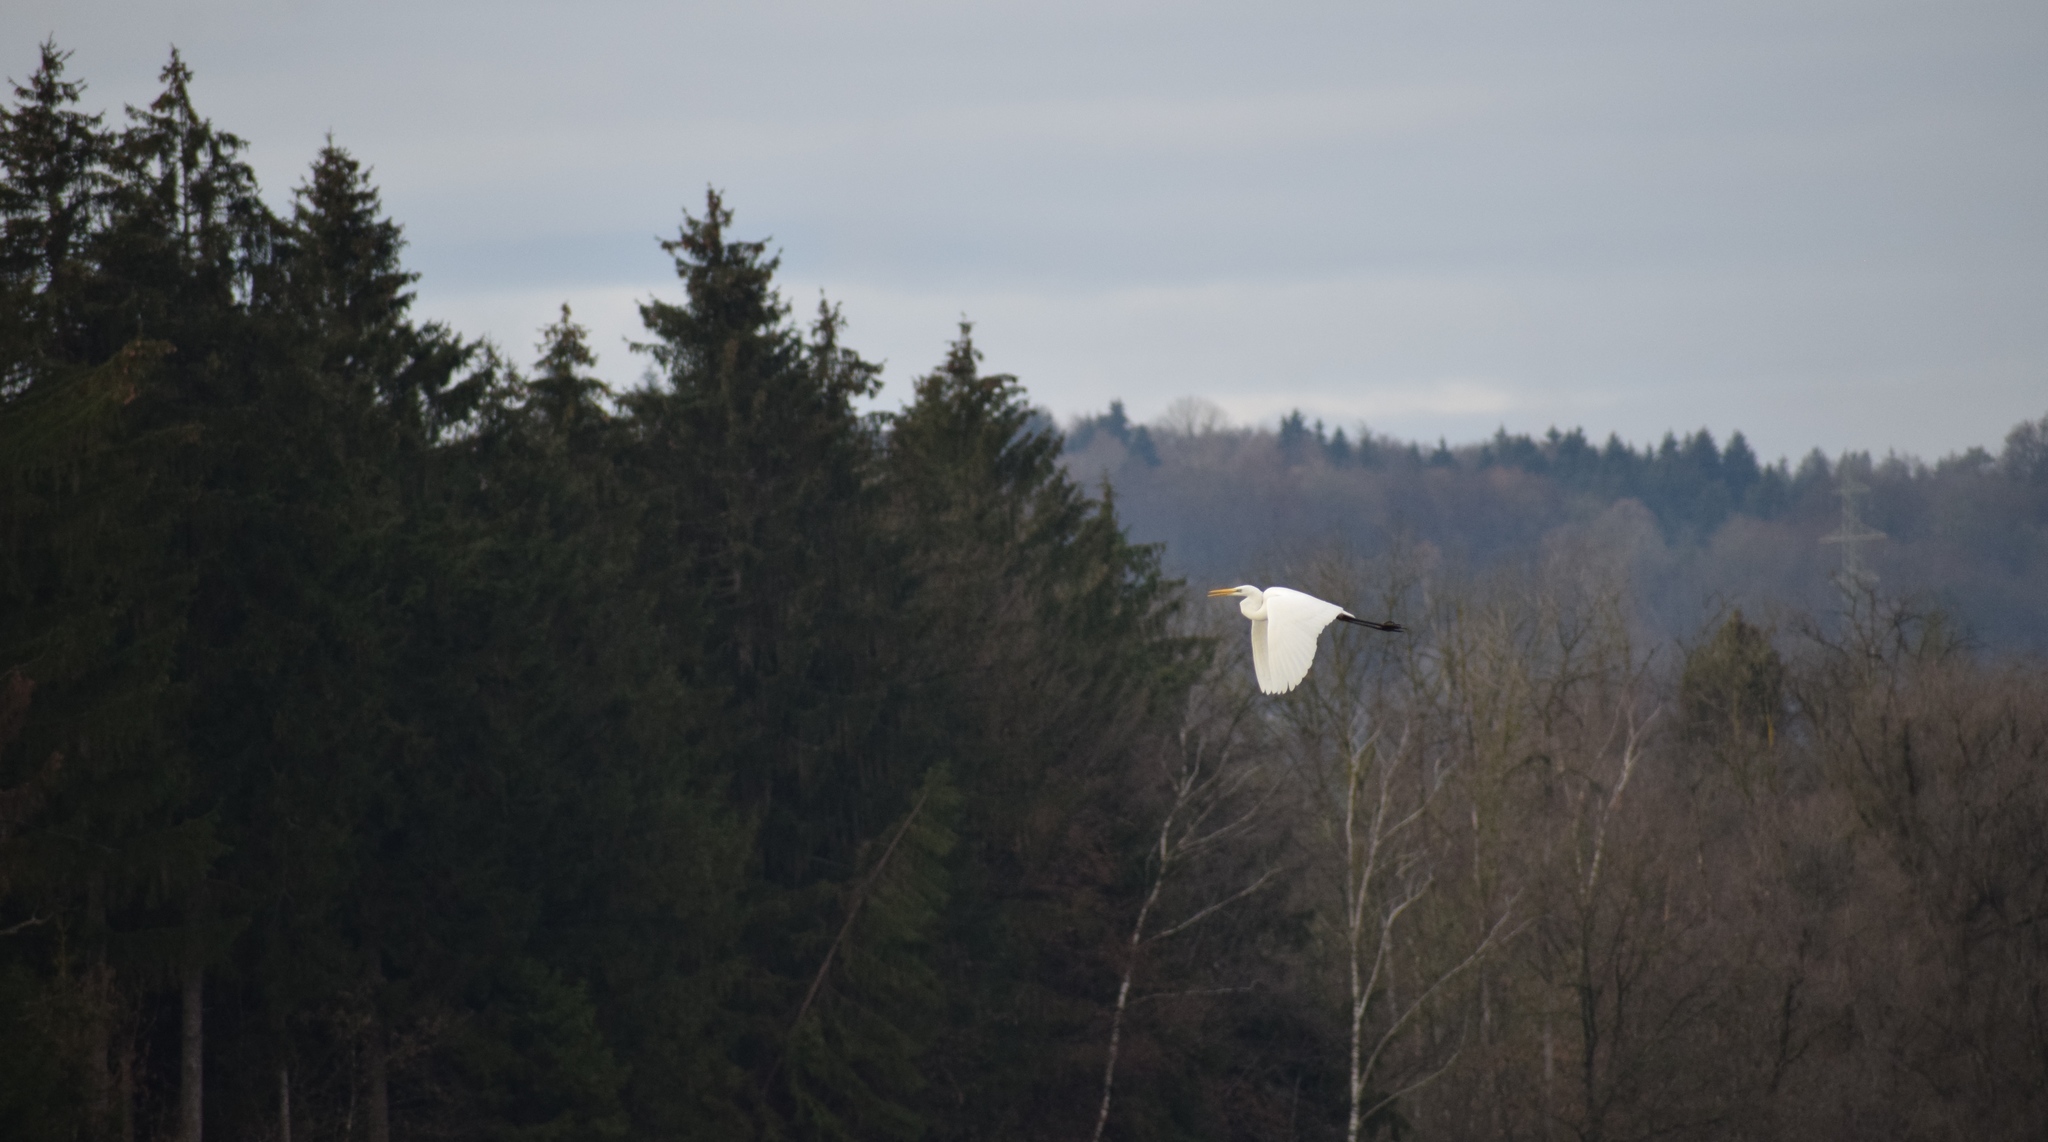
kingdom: Animalia
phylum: Chordata
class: Aves
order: Pelecaniformes
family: Ardeidae
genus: Ardea
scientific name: Ardea alba
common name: Great egret
